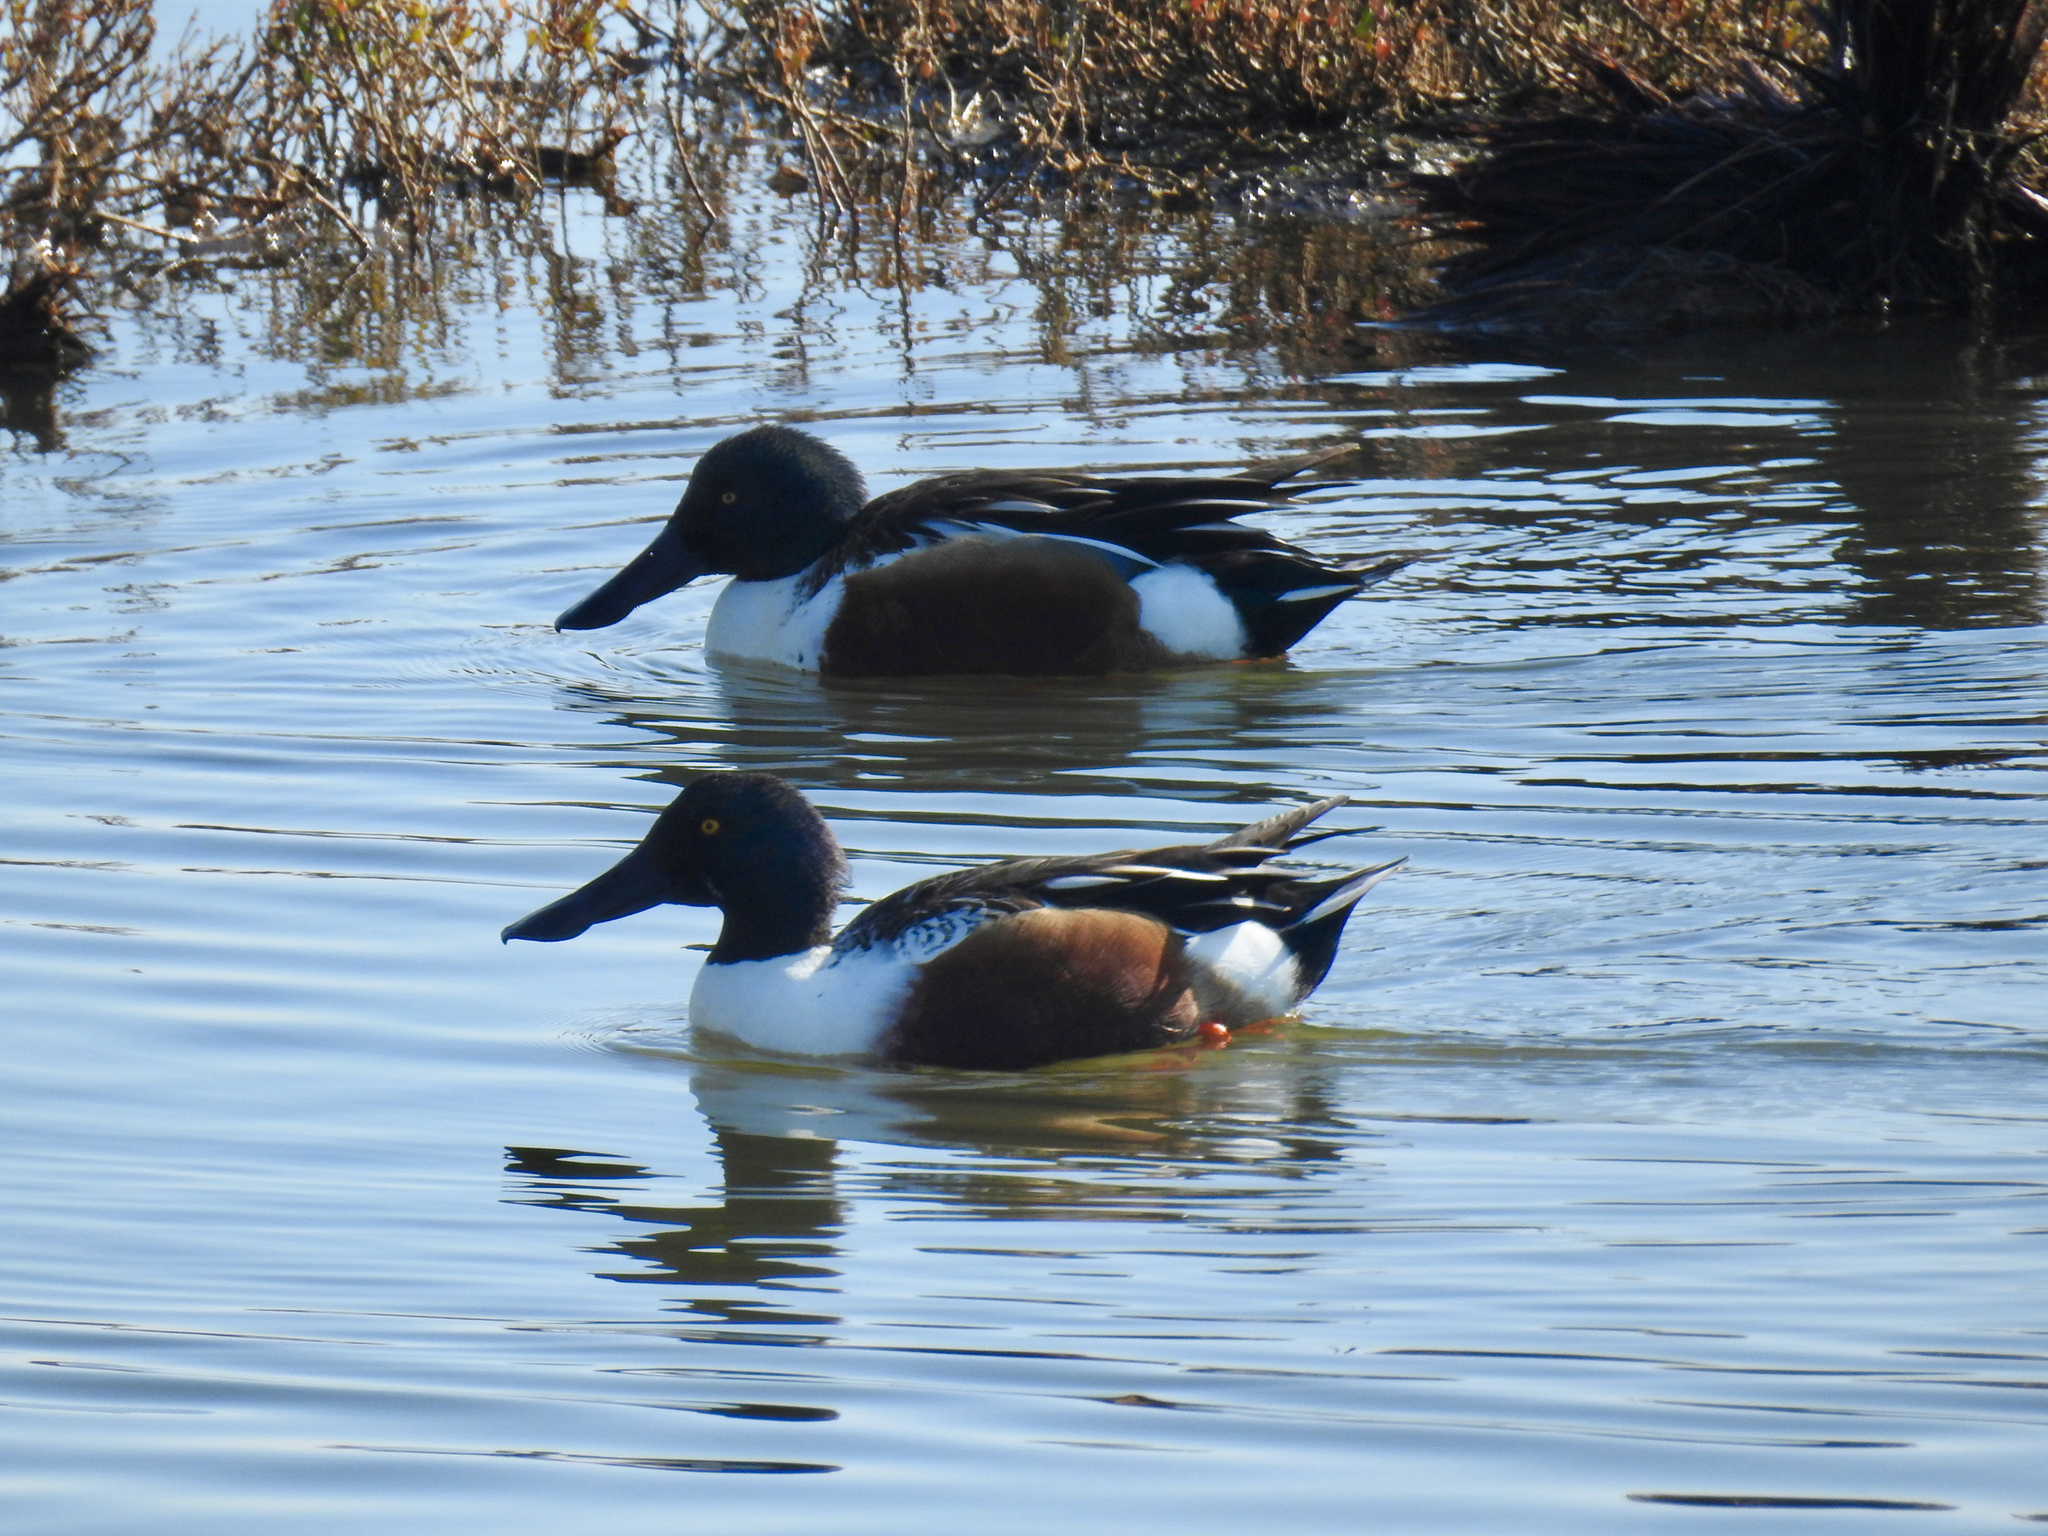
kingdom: Animalia
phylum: Chordata
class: Aves
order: Anseriformes
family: Anatidae
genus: Spatula
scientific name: Spatula clypeata
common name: Northern shoveler
